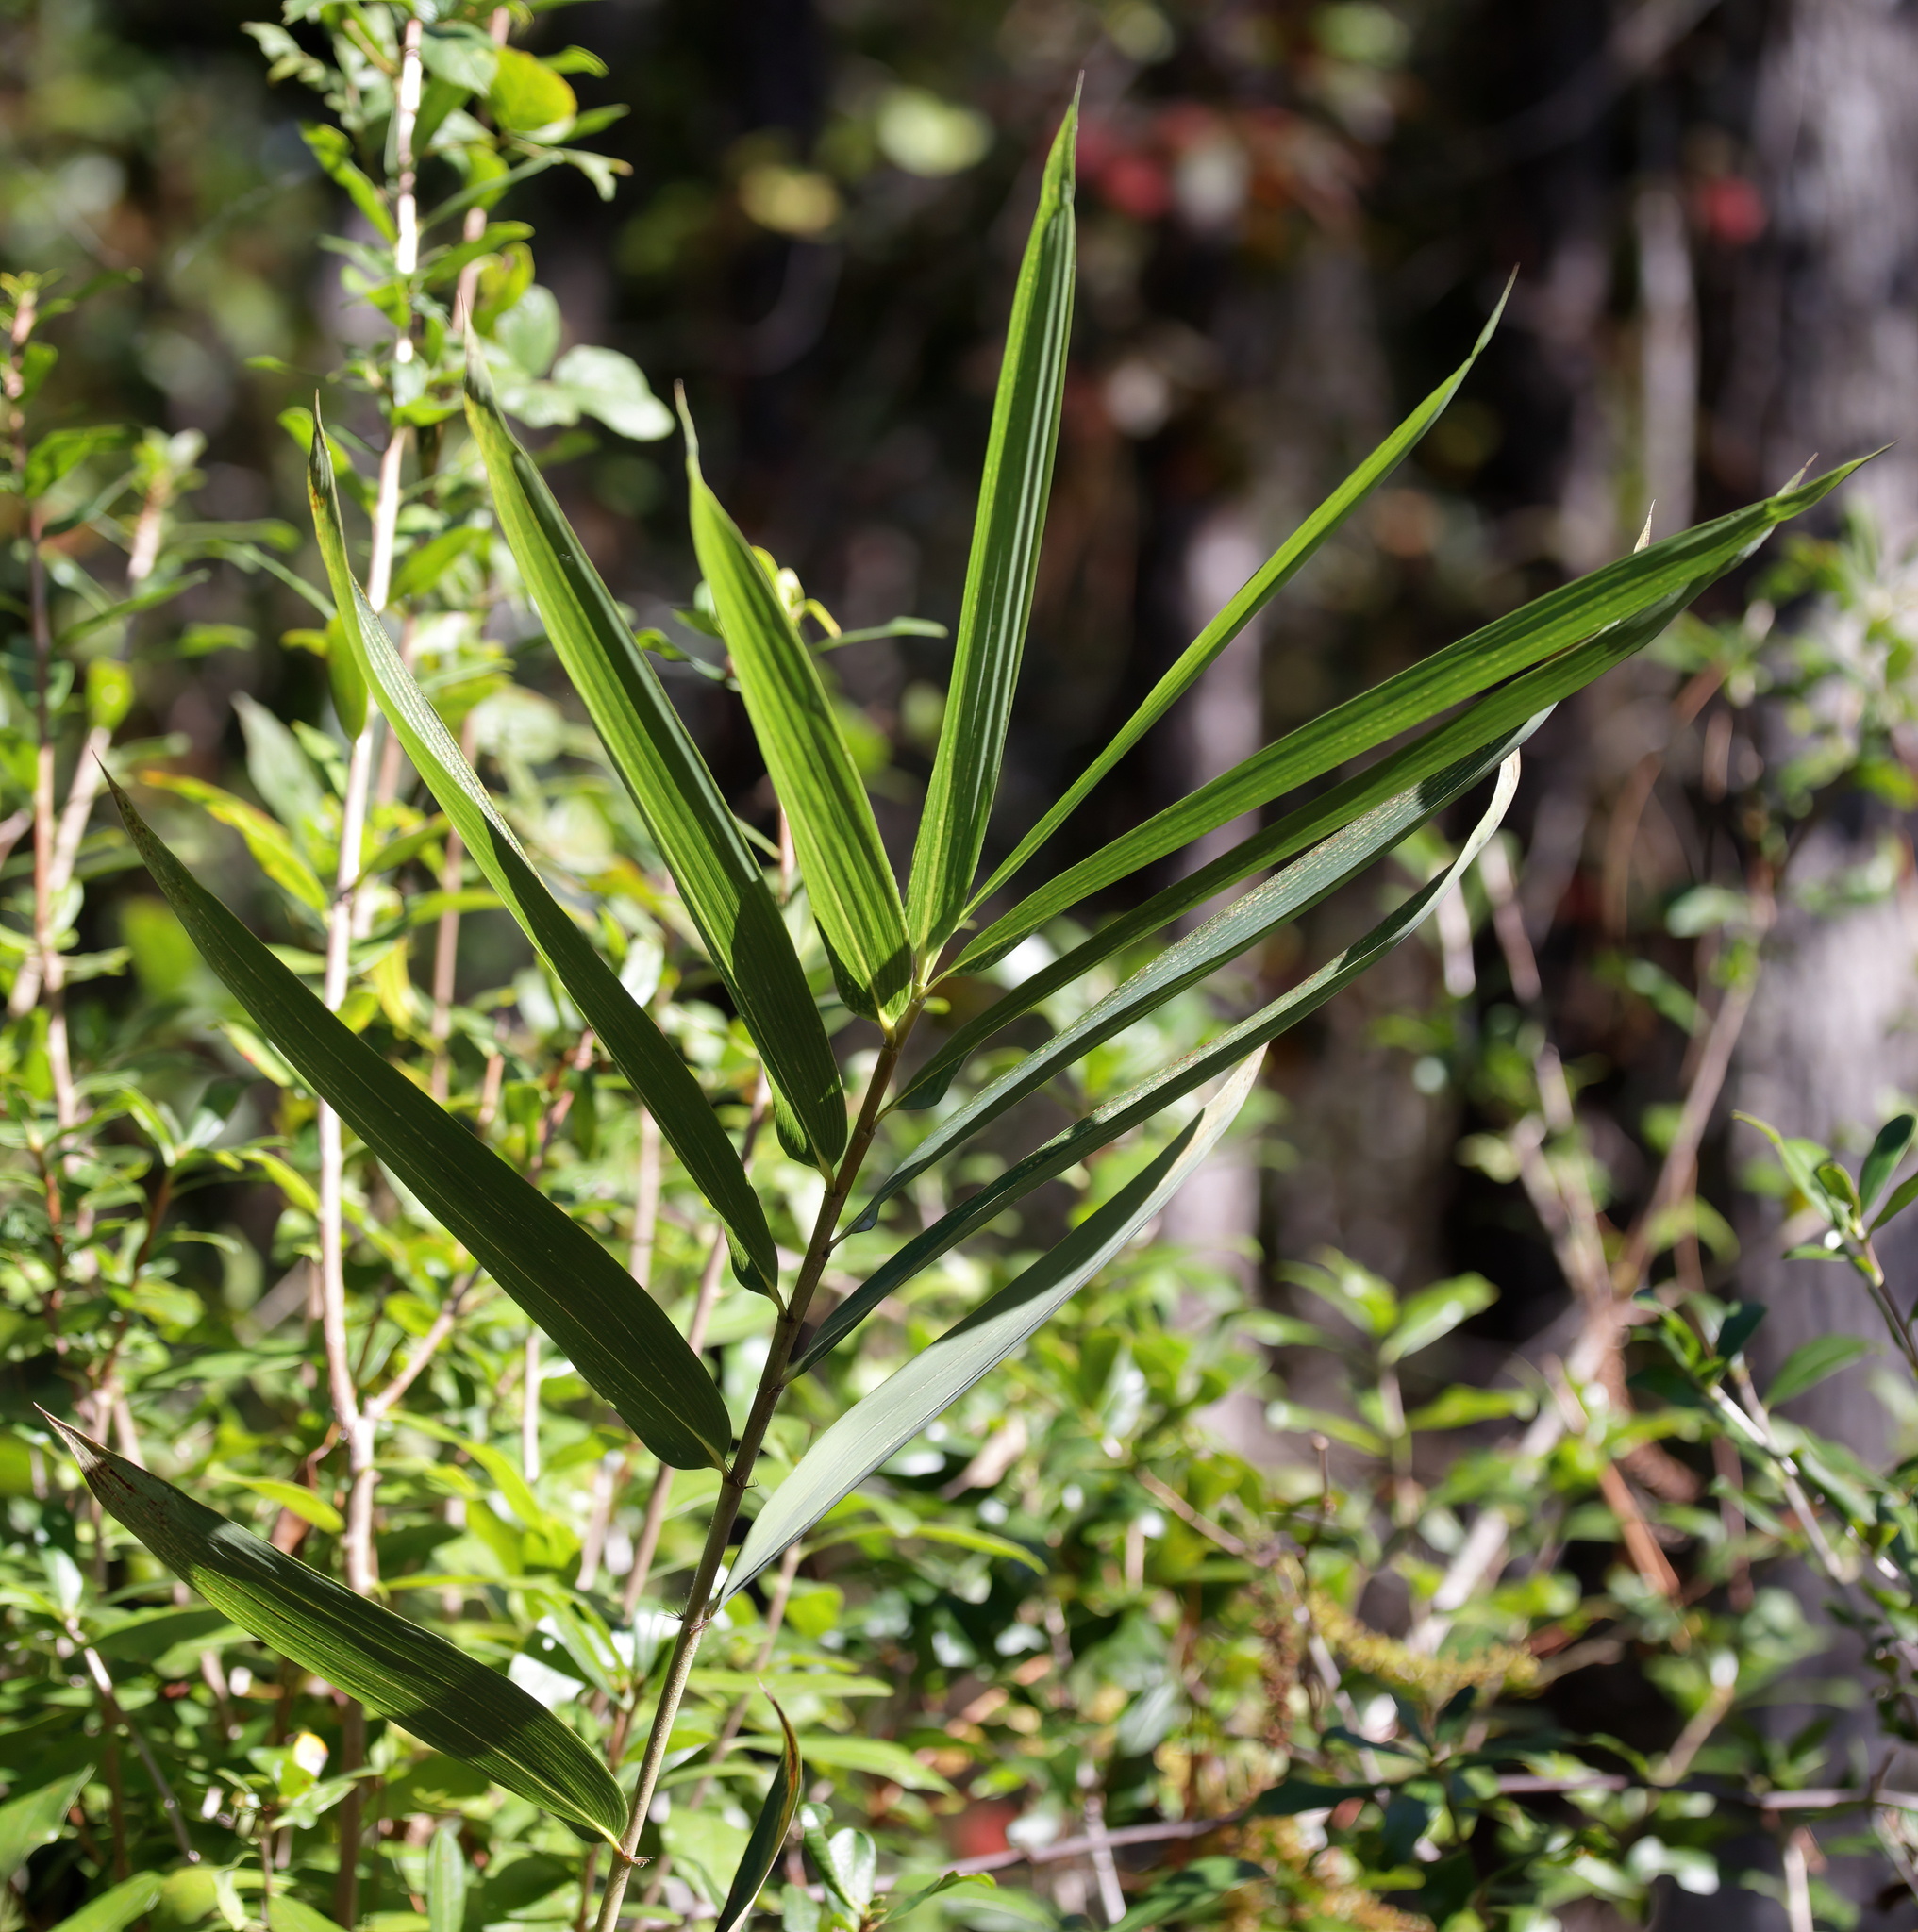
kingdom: Plantae
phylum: Tracheophyta
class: Liliopsida
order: Poales
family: Poaceae
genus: Arundinaria
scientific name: Arundinaria tecta
